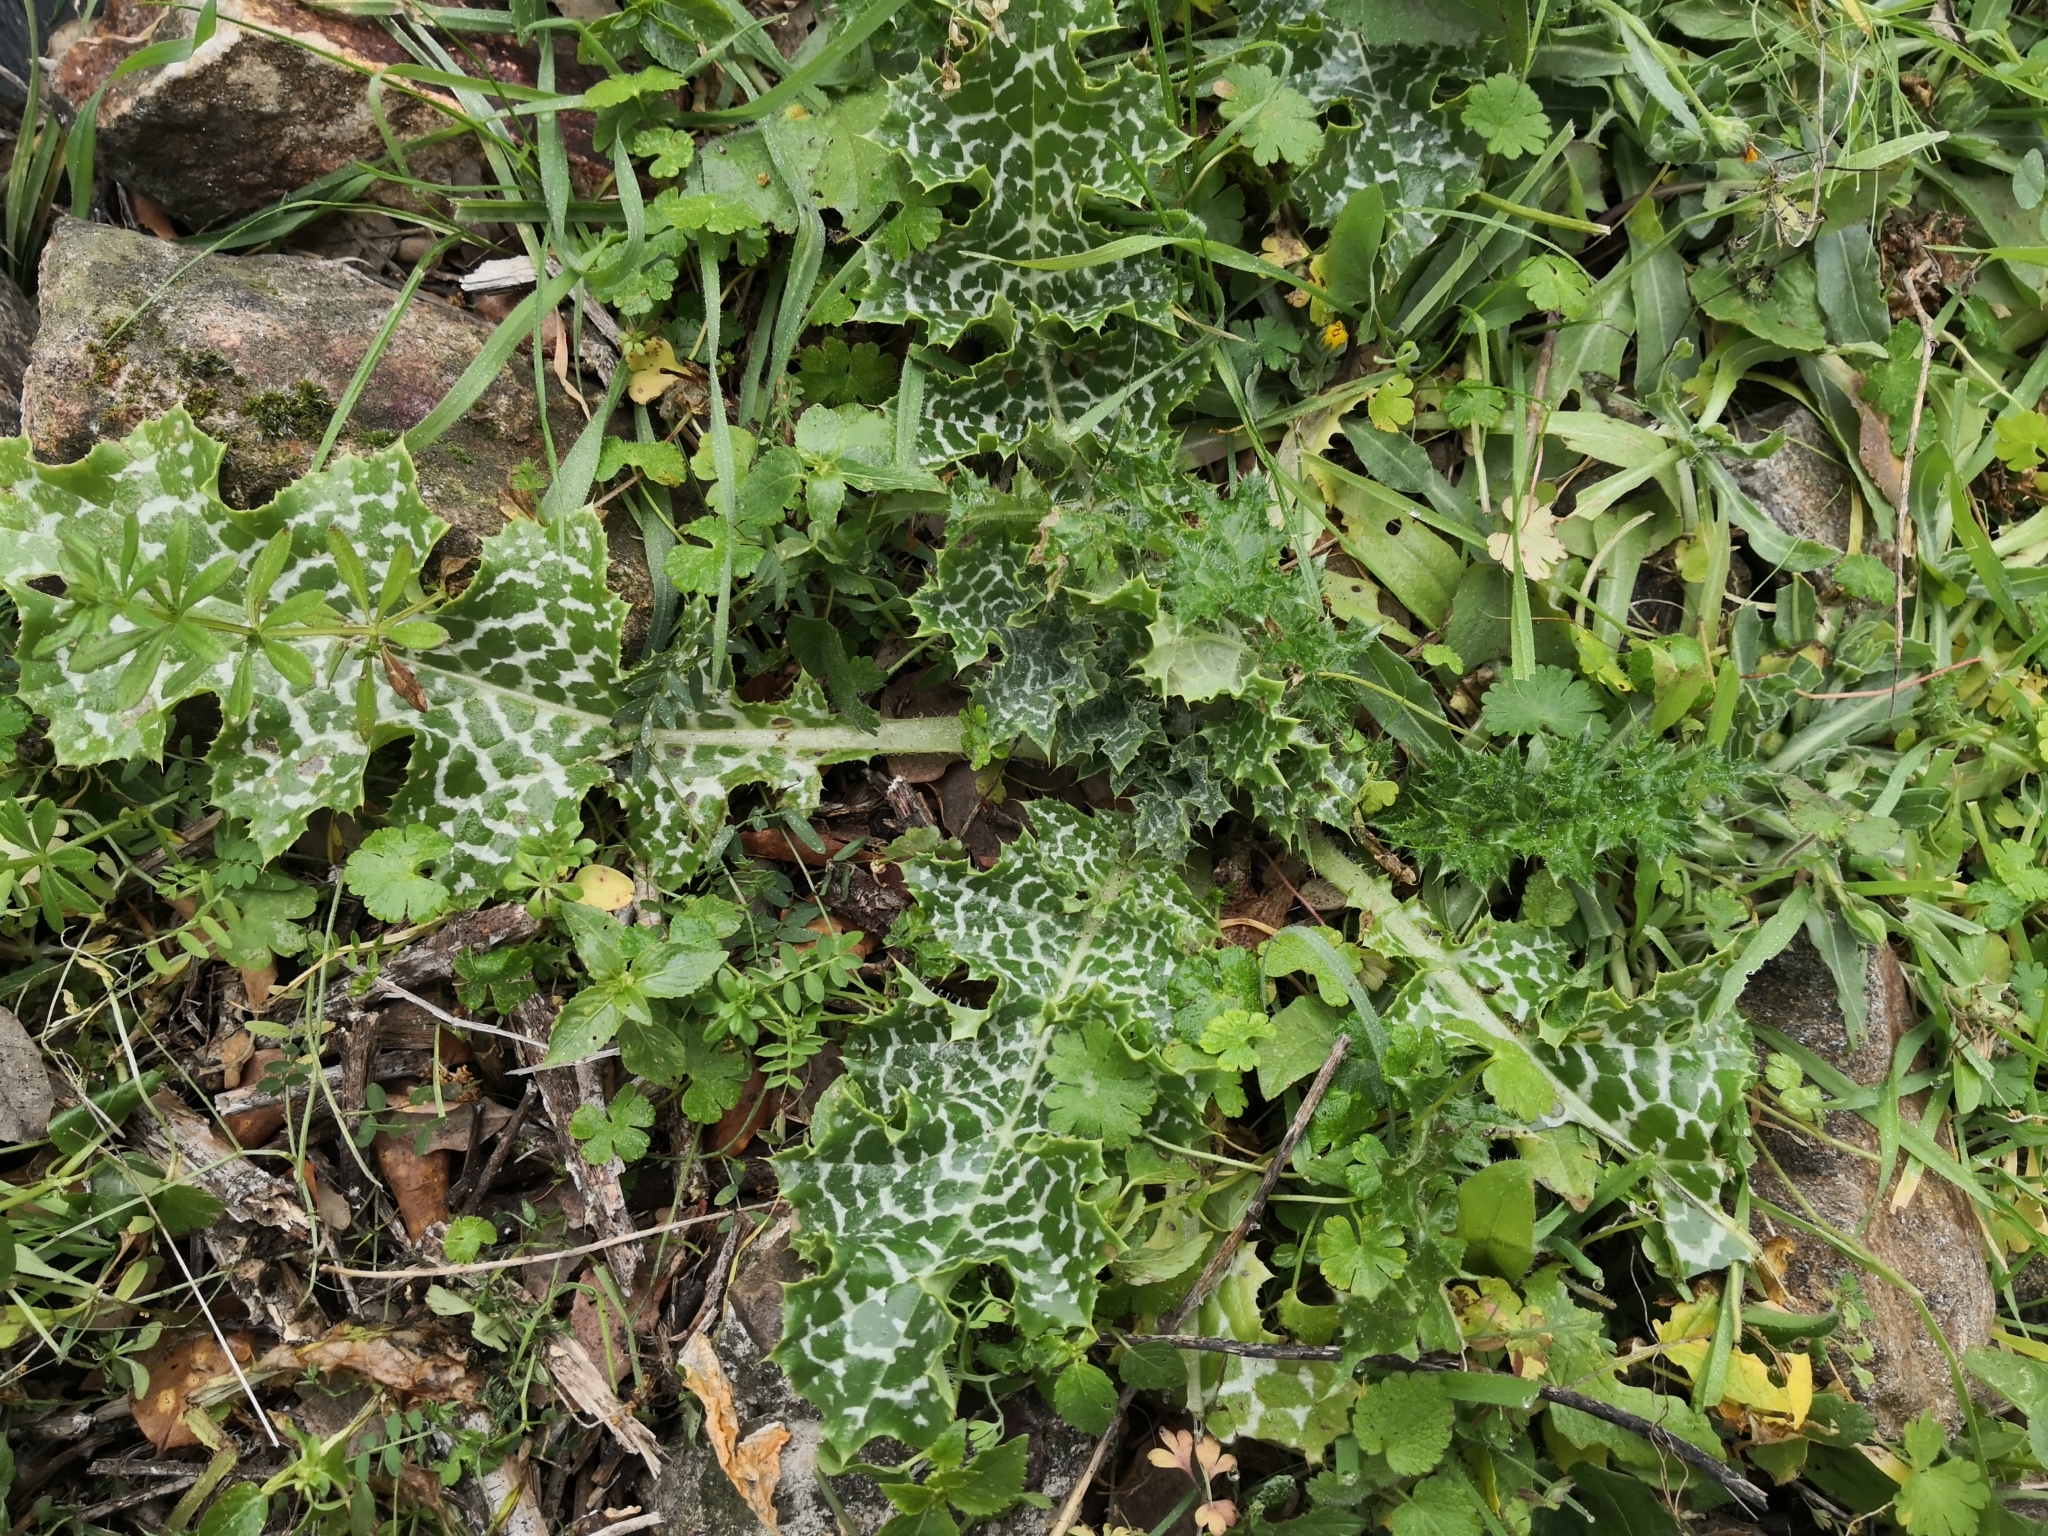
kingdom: Plantae
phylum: Tracheophyta
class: Magnoliopsida
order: Asterales
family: Asteraceae
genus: Silybum
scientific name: Silybum marianum
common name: Milk thistle
